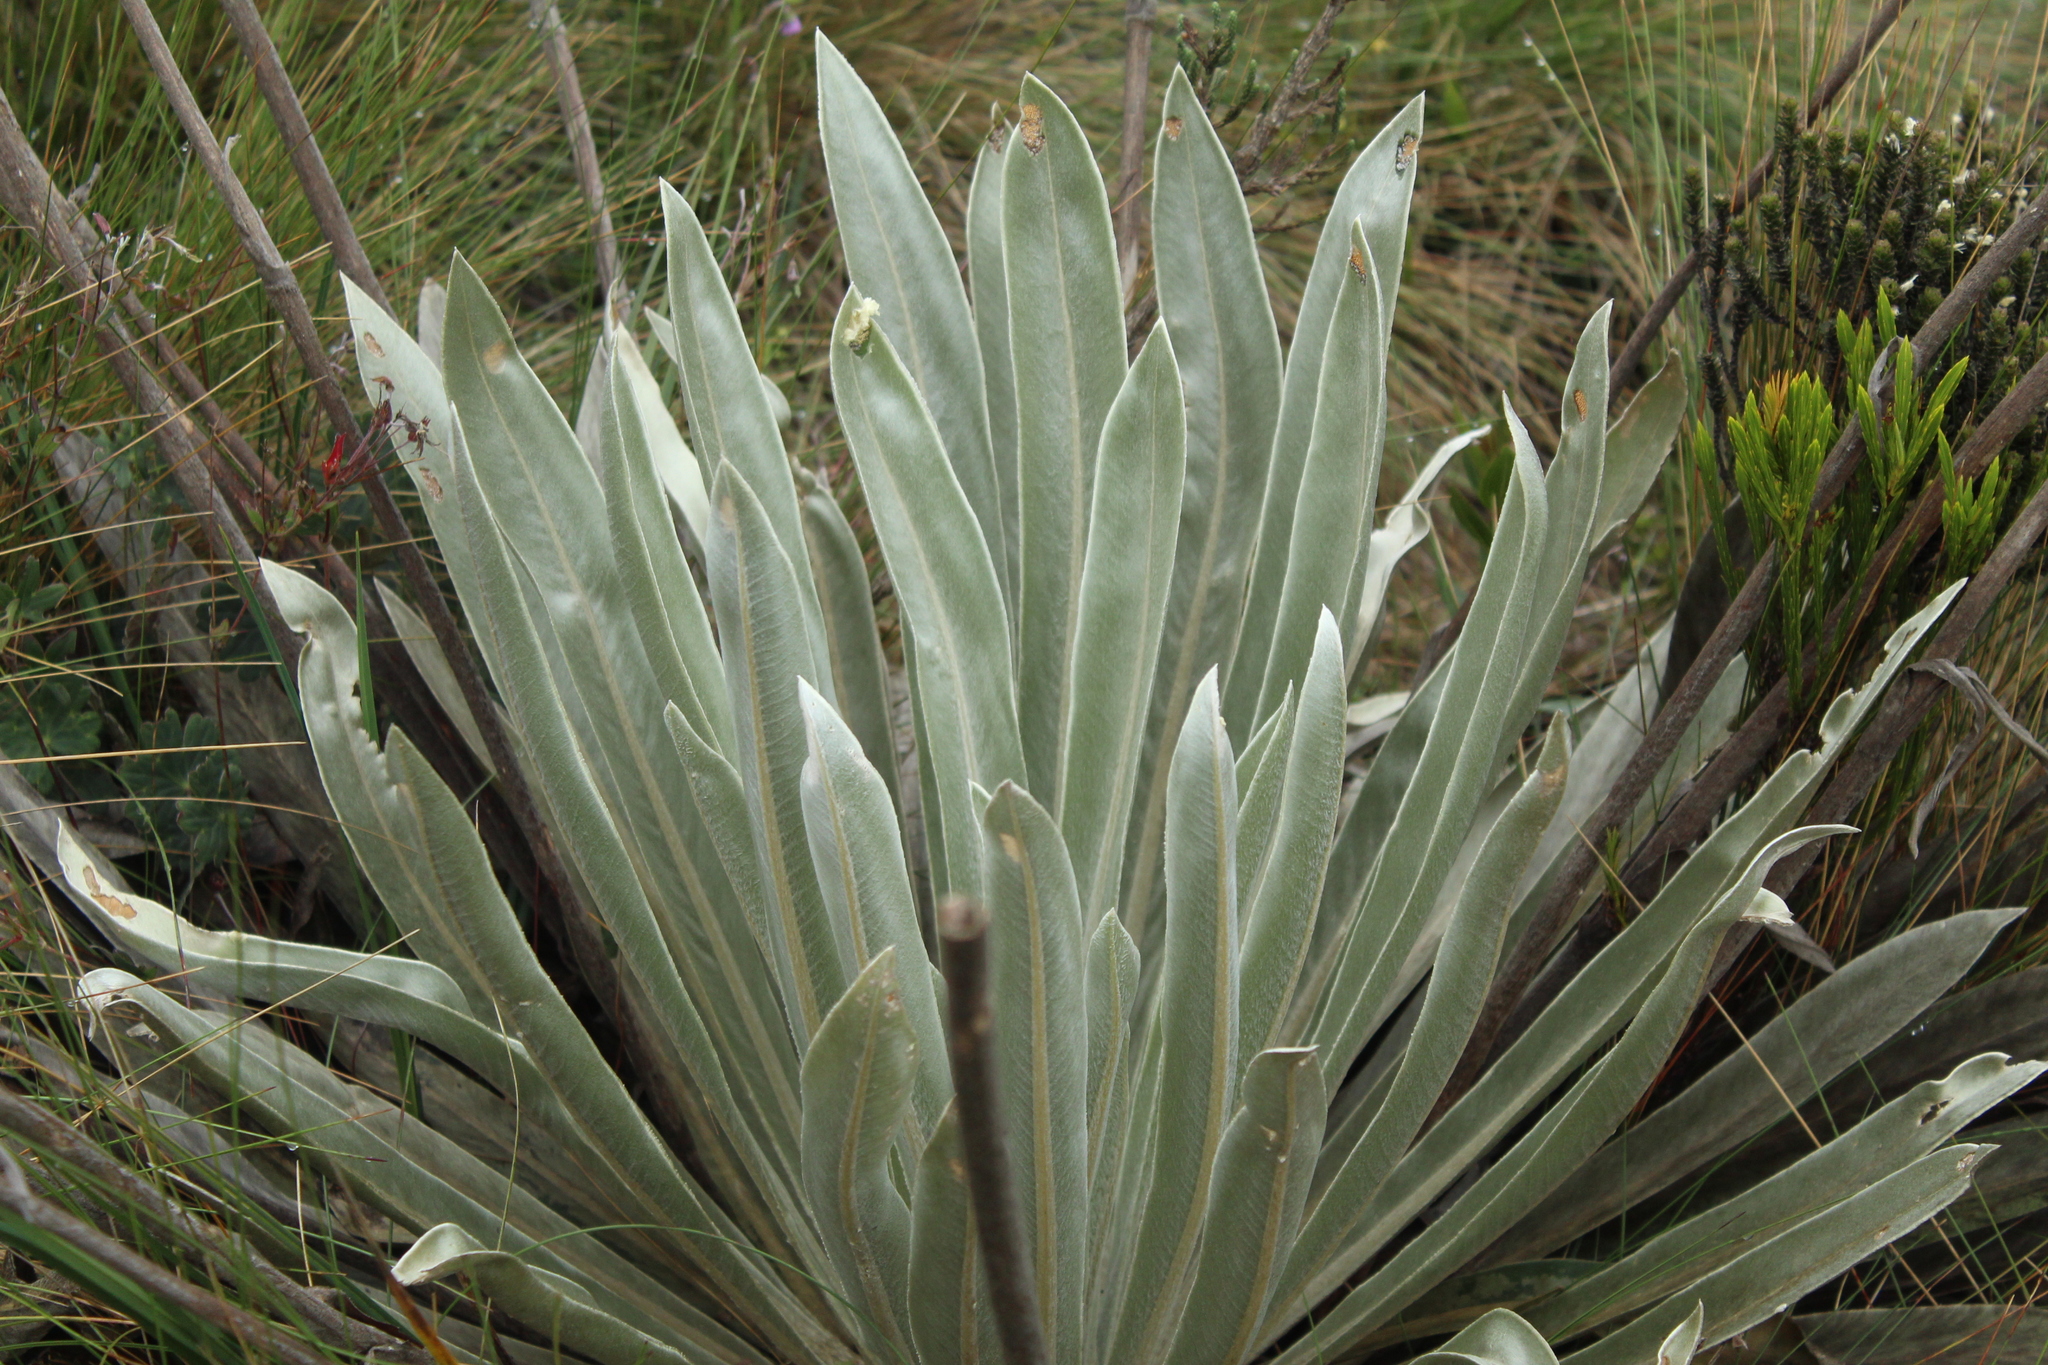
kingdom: Plantae
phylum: Tracheophyta
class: Magnoliopsida
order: Asterales
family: Asteraceae
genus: Espeletia
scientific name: Espeletia boyacensis
